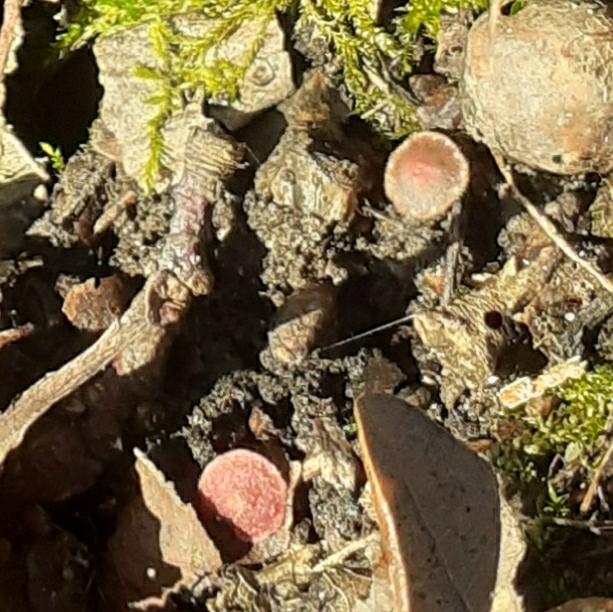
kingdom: Animalia
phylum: Arthropoda
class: Insecta
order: Hymenoptera
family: Cynipidae
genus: Neuroterus
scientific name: Neuroterus quercusbaccarum
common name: Common spangle gall
